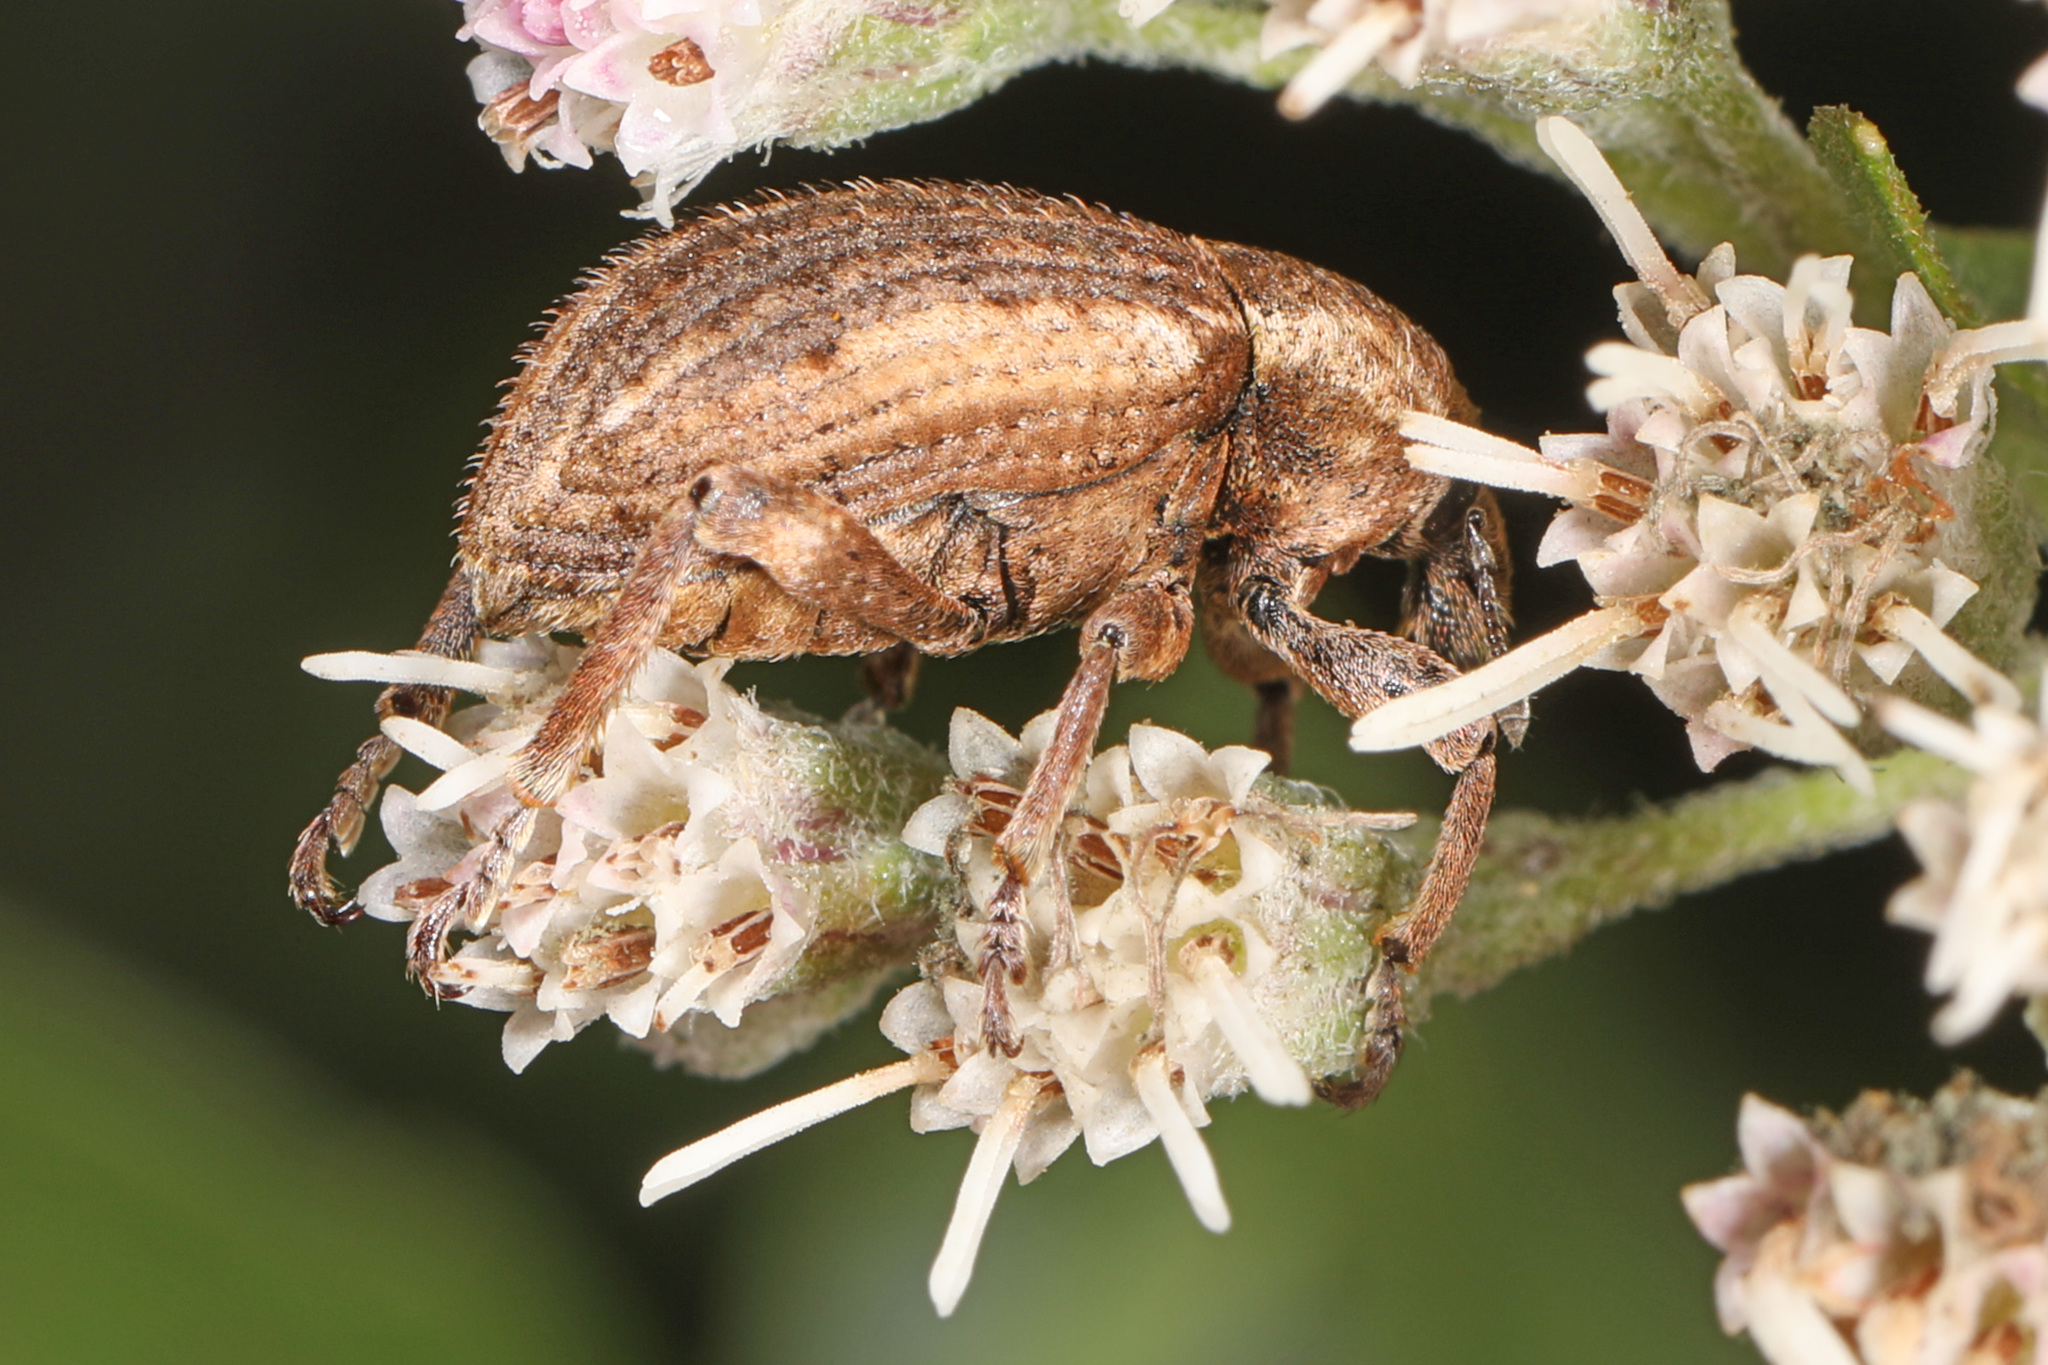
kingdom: Animalia
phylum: Arthropoda
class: Insecta
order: Coleoptera
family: Curculionidae
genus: Brachypera
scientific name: Brachypera zoilus
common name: Clover leaf weevil
